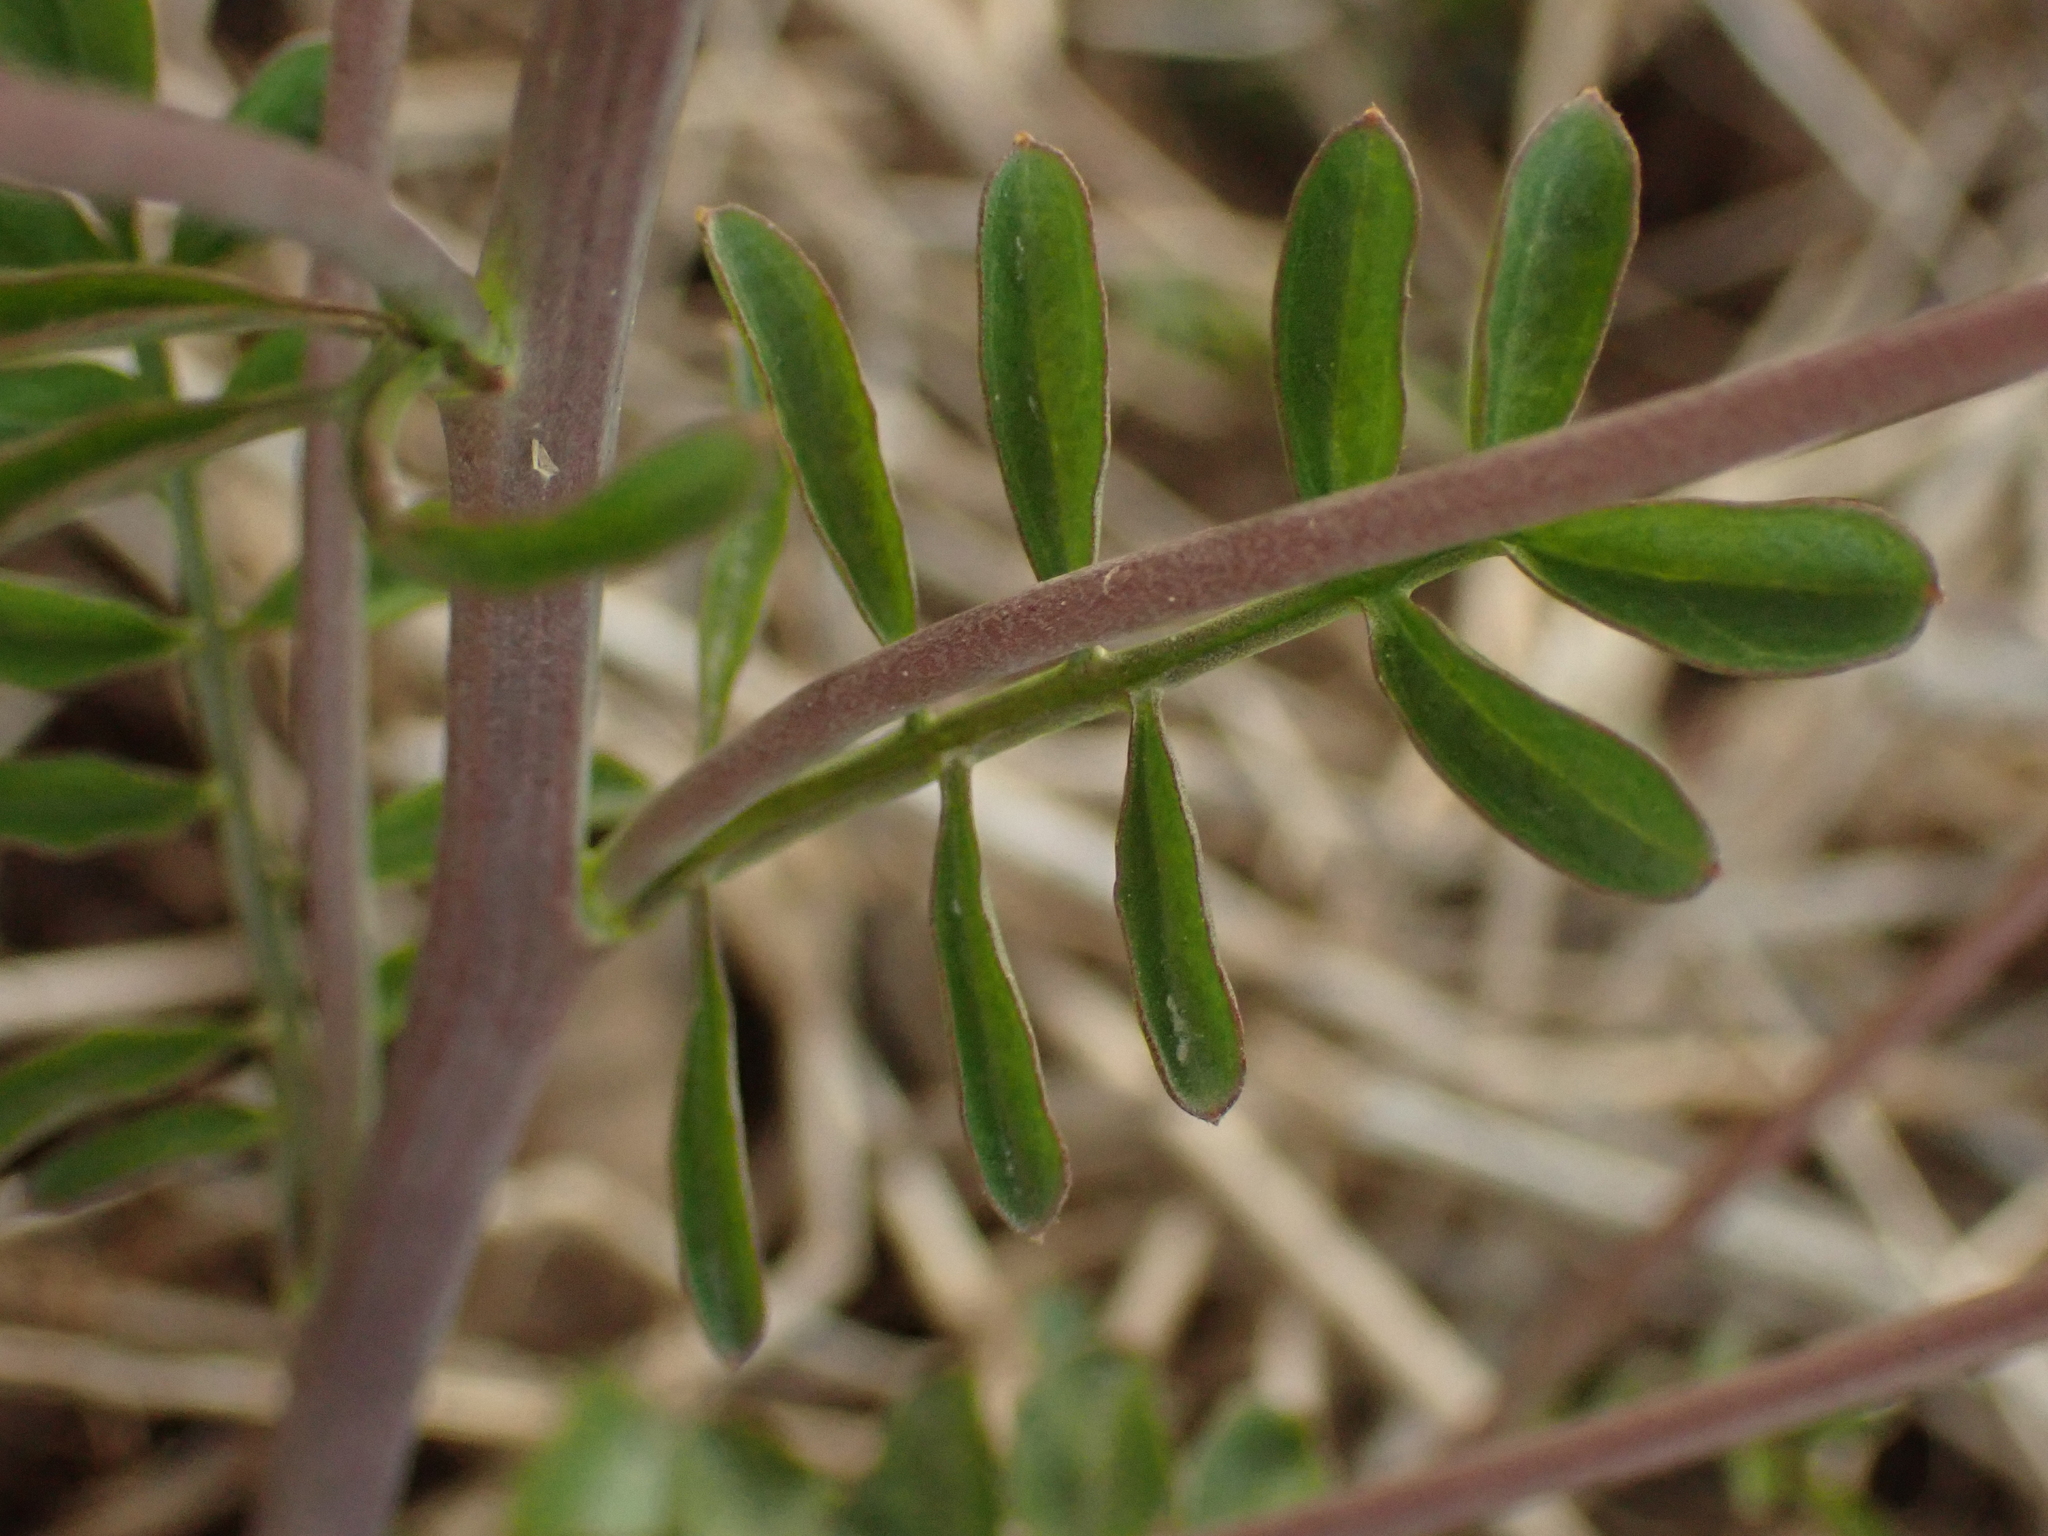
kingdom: Plantae
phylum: Tracheophyta
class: Magnoliopsida
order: Brassicales
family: Brassicaceae
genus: Cardamine
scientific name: Cardamine pratensis
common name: Cuckoo flower
